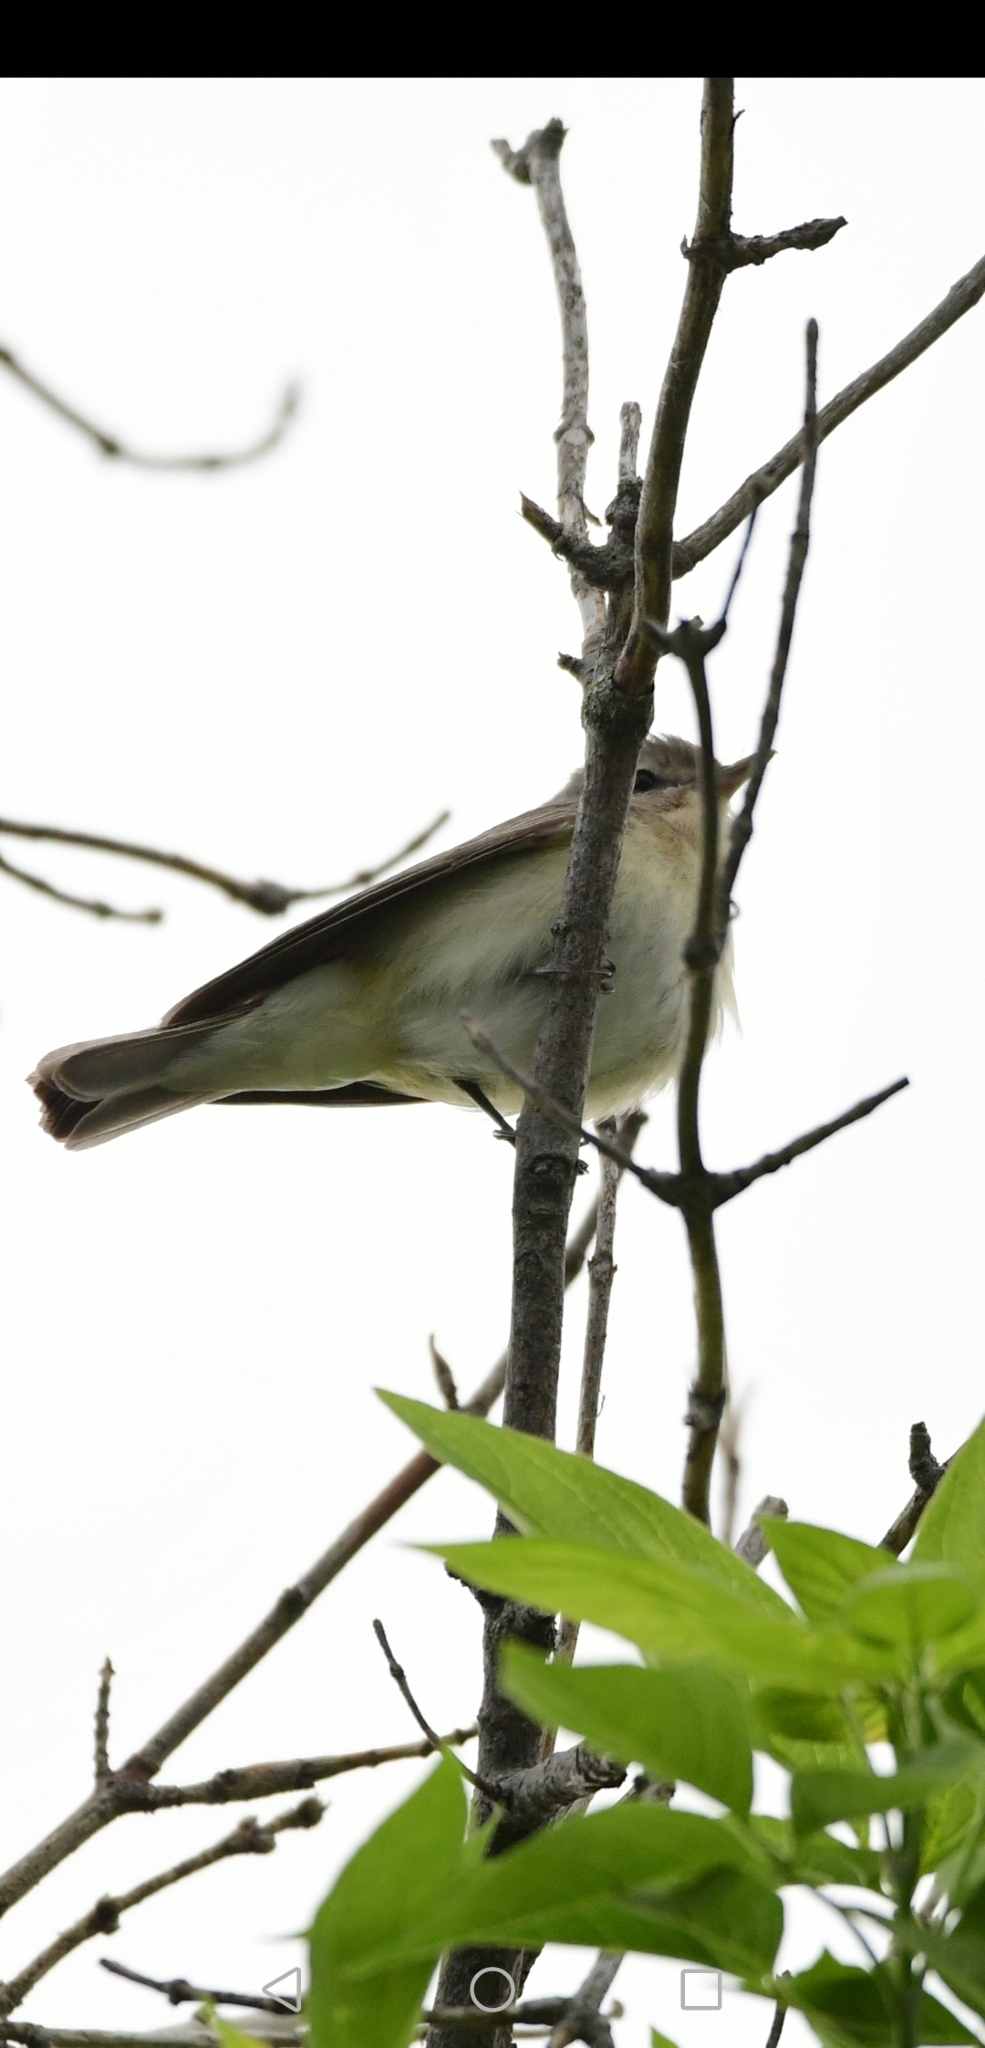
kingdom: Animalia
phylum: Chordata
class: Aves
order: Passeriformes
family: Vireonidae
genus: Vireo
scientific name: Vireo gilvus
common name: Warbling vireo
